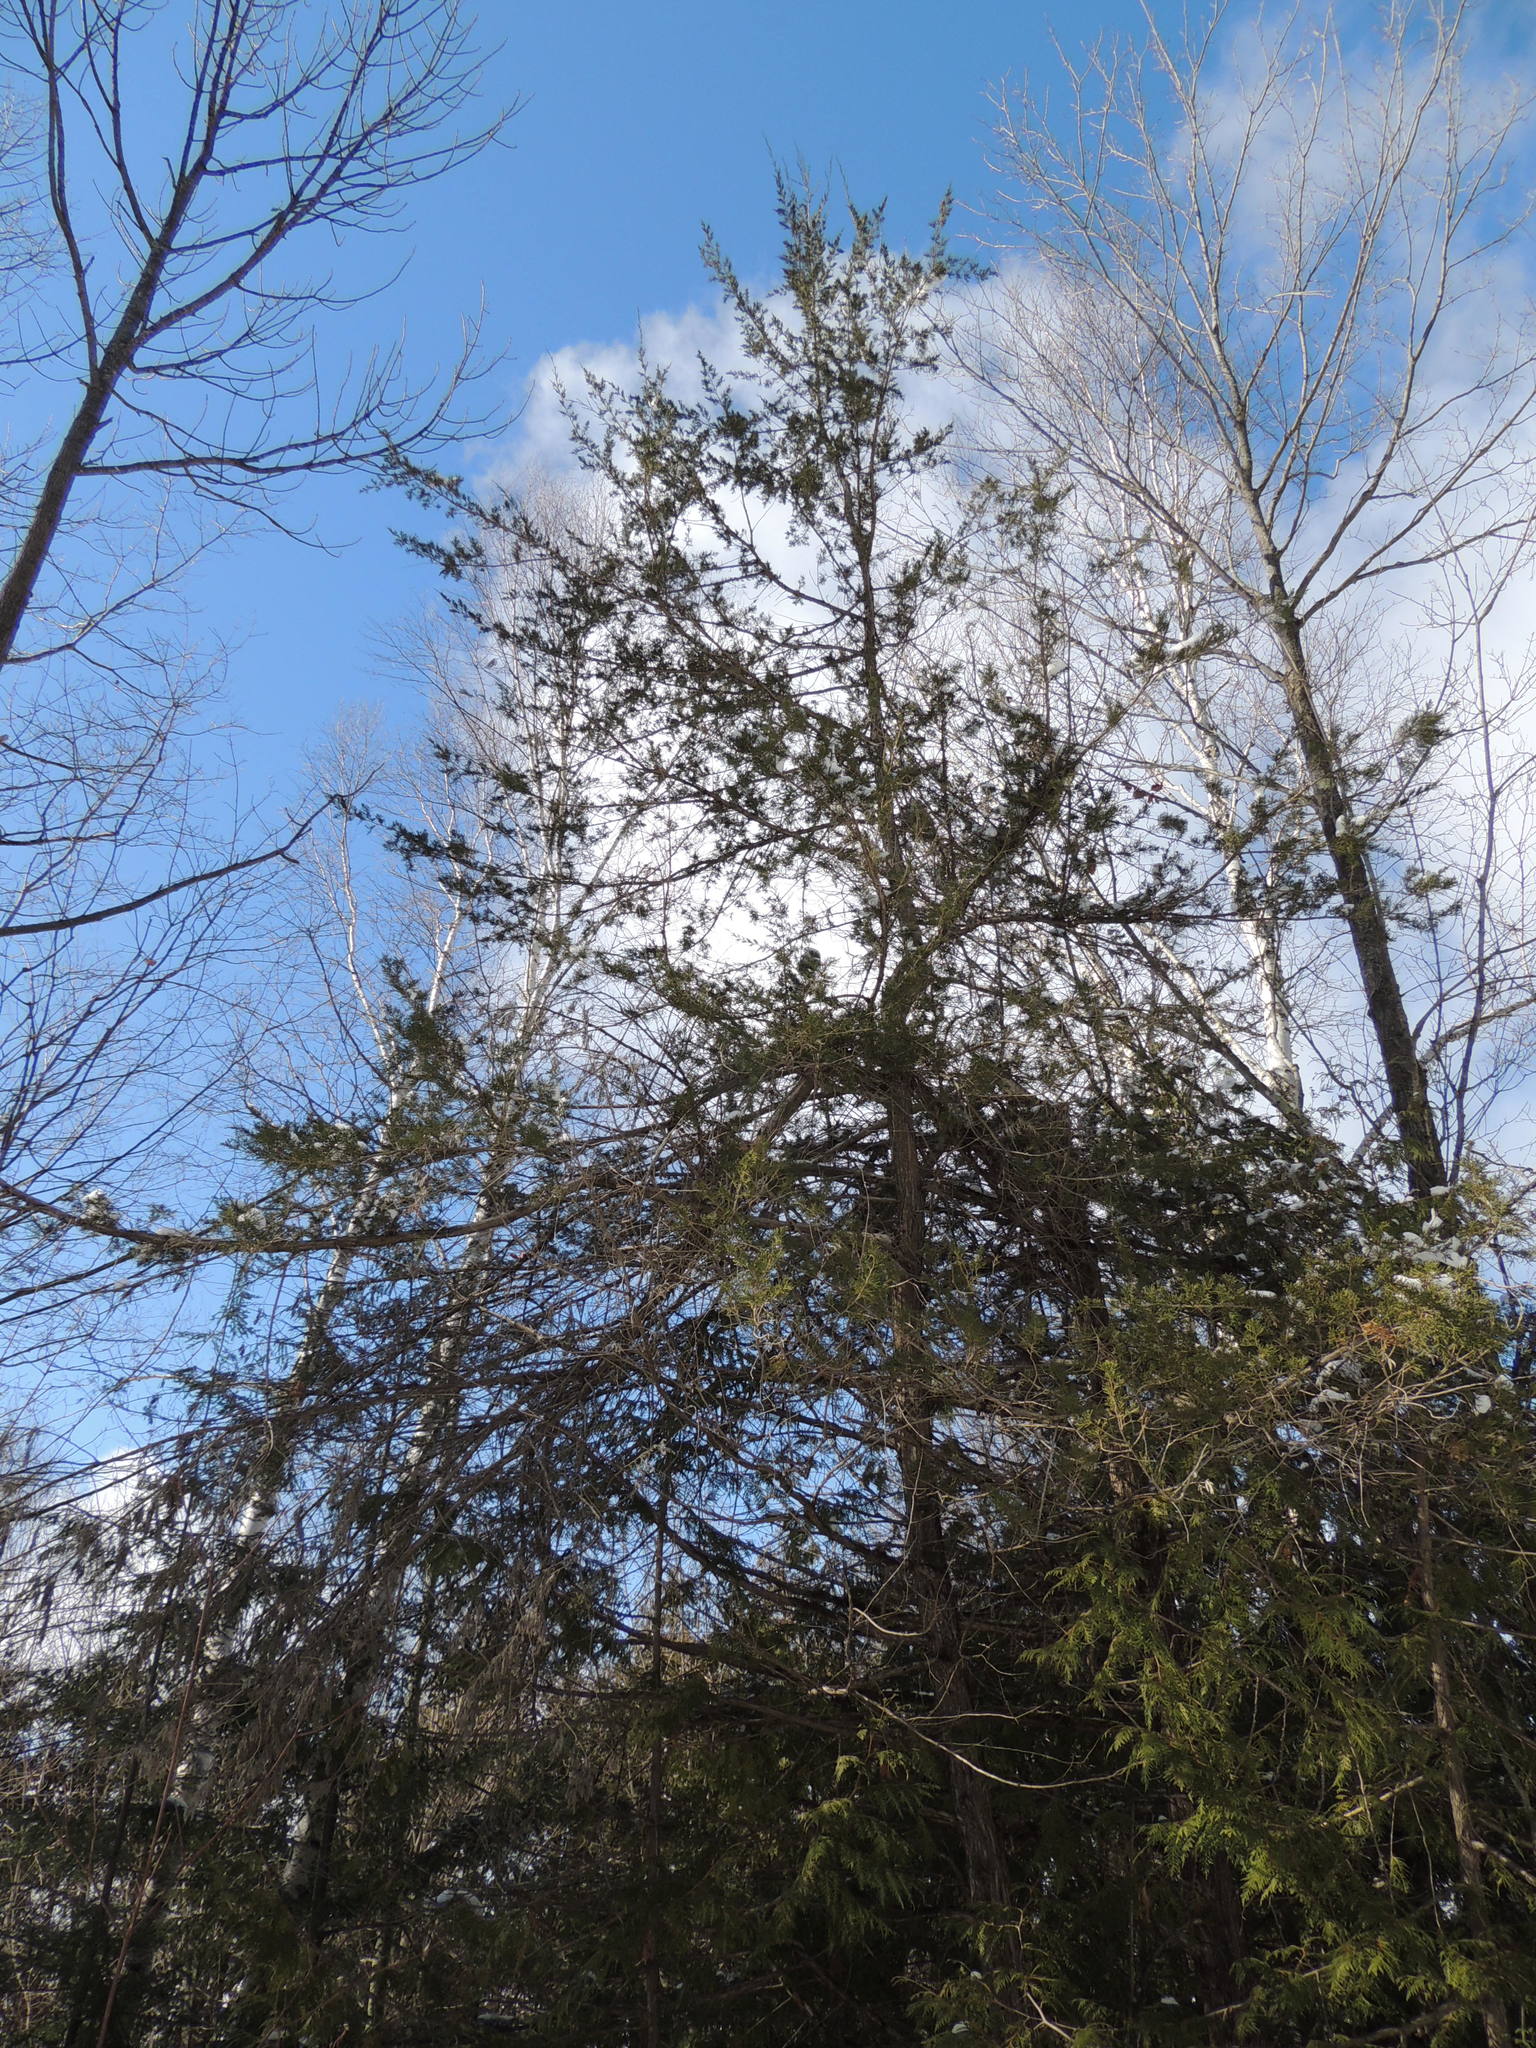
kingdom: Plantae
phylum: Tracheophyta
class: Pinopsida
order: Pinales
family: Cupressaceae
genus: Juniperus
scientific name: Juniperus virginiana
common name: Red juniper
